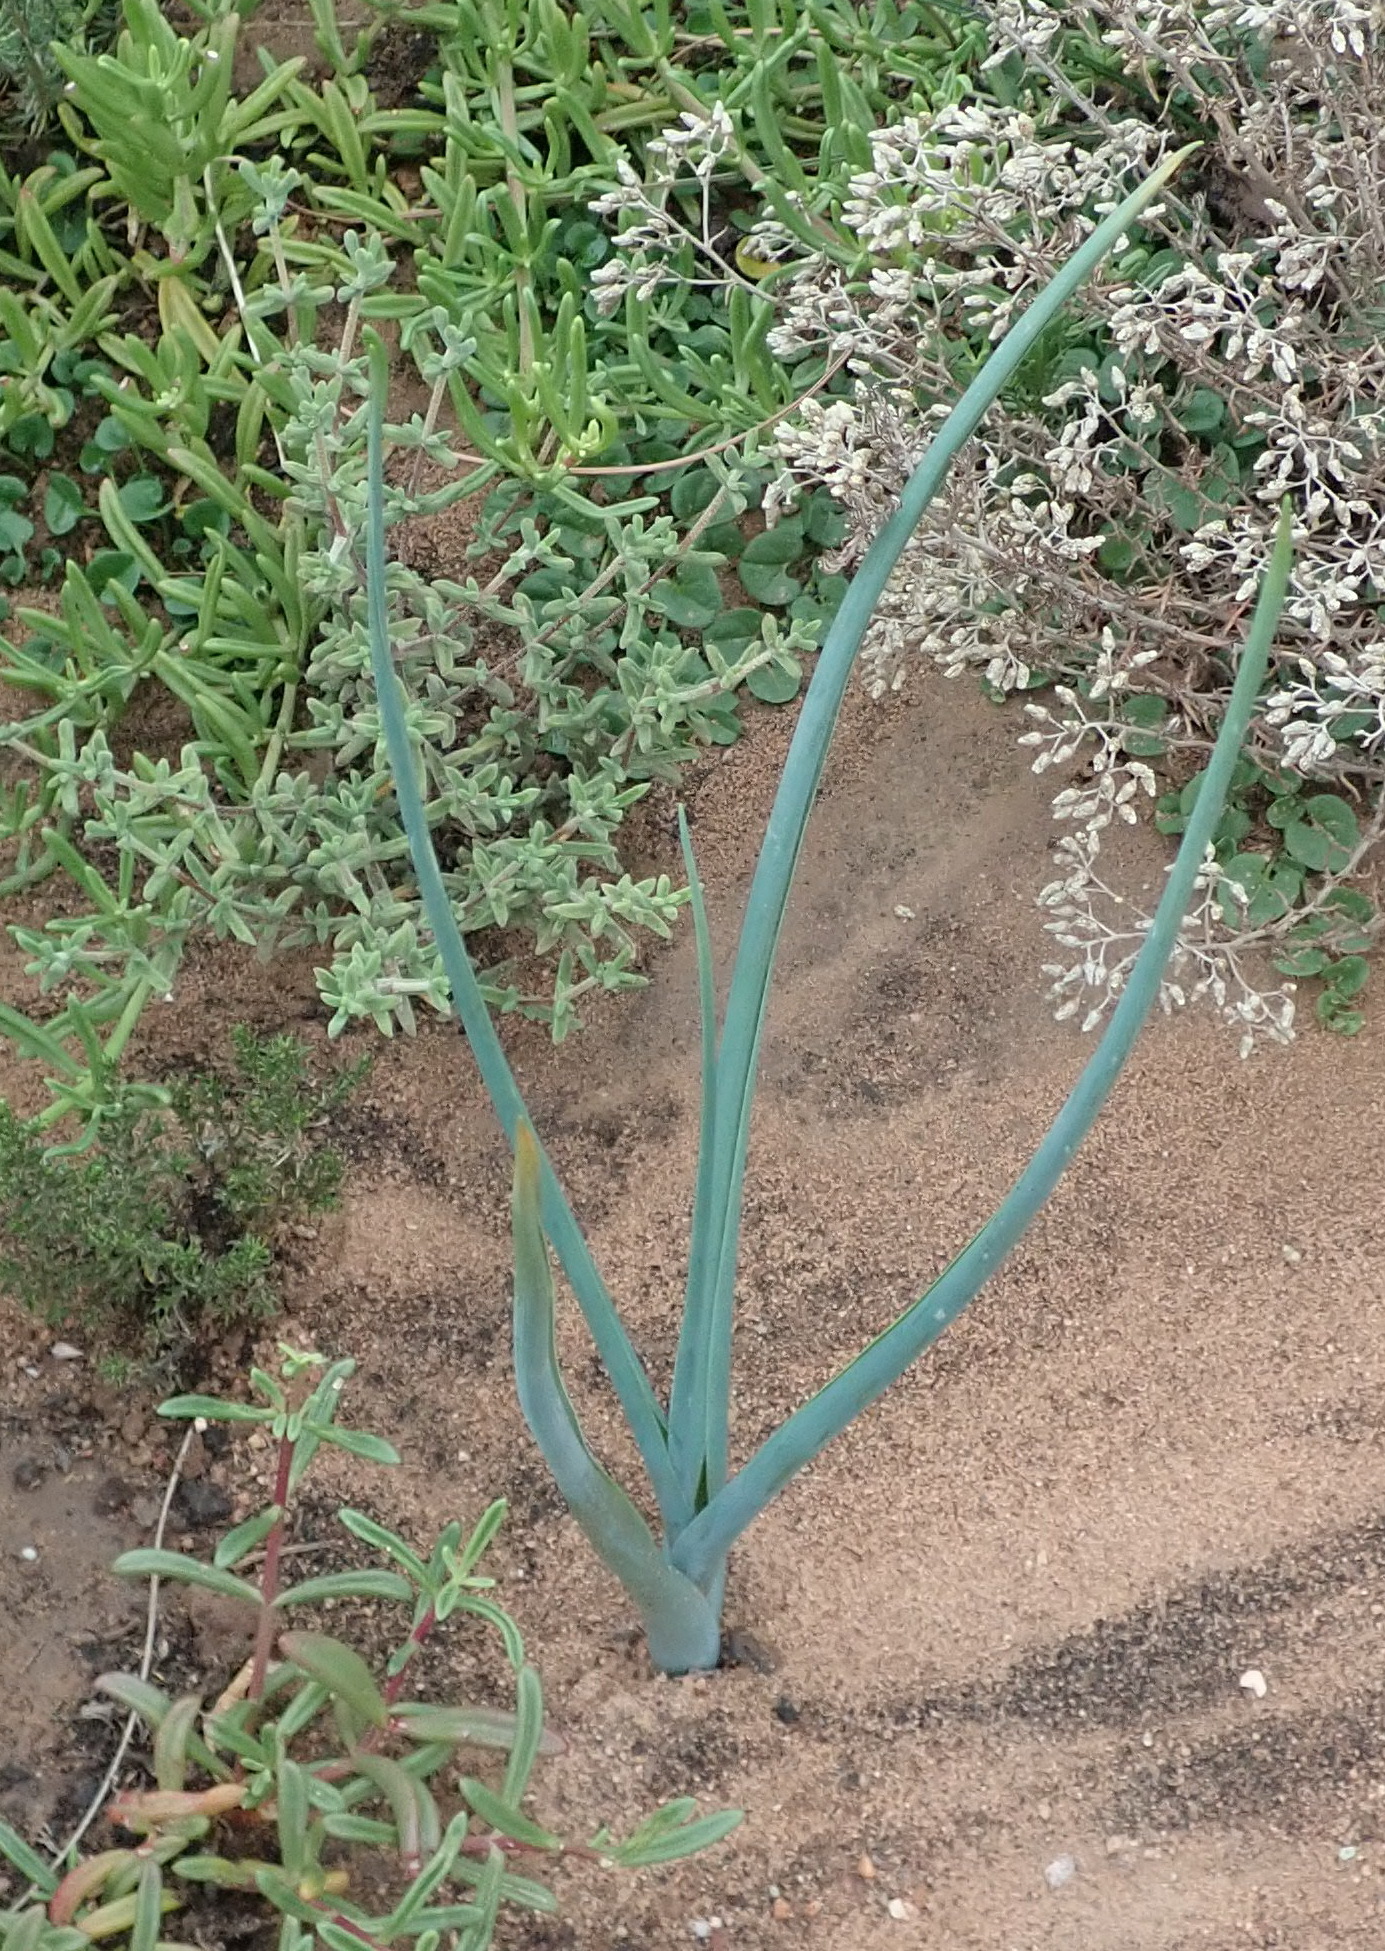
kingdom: Plantae
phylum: Tracheophyta
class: Liliopsida
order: Asparagales
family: Asparagaceae
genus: Albuca
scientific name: Albuca canadensis
